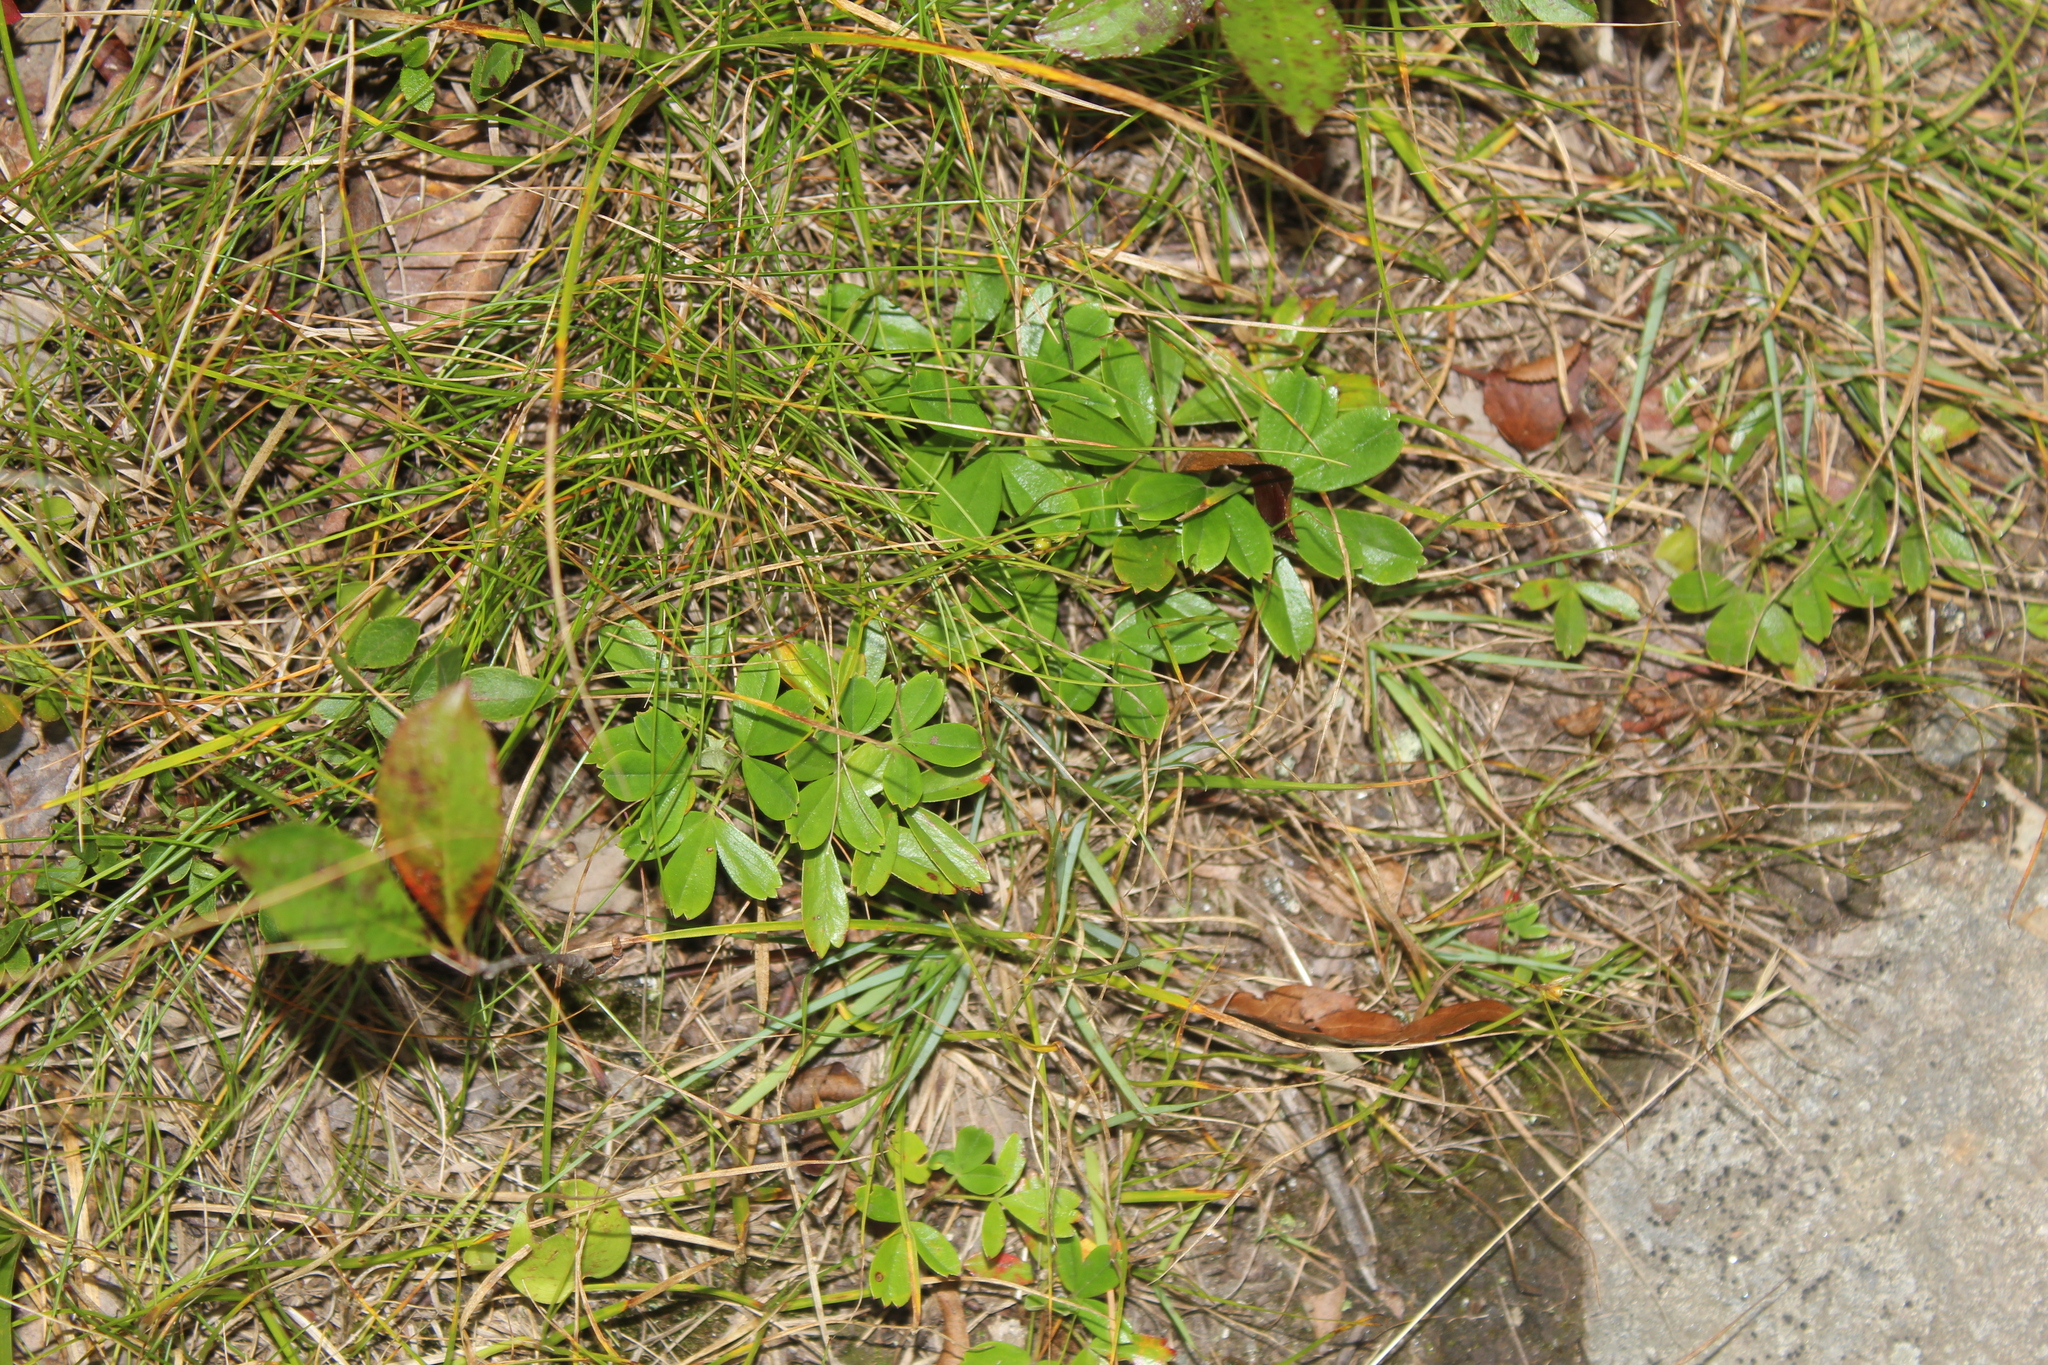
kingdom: Plantae
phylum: Tracheophyta
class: Magnoliopsida
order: Rosales
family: Rosaceae
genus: Sibbaldia
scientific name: Sibbaldia tridentata
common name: Three-toothed cinquefoil
